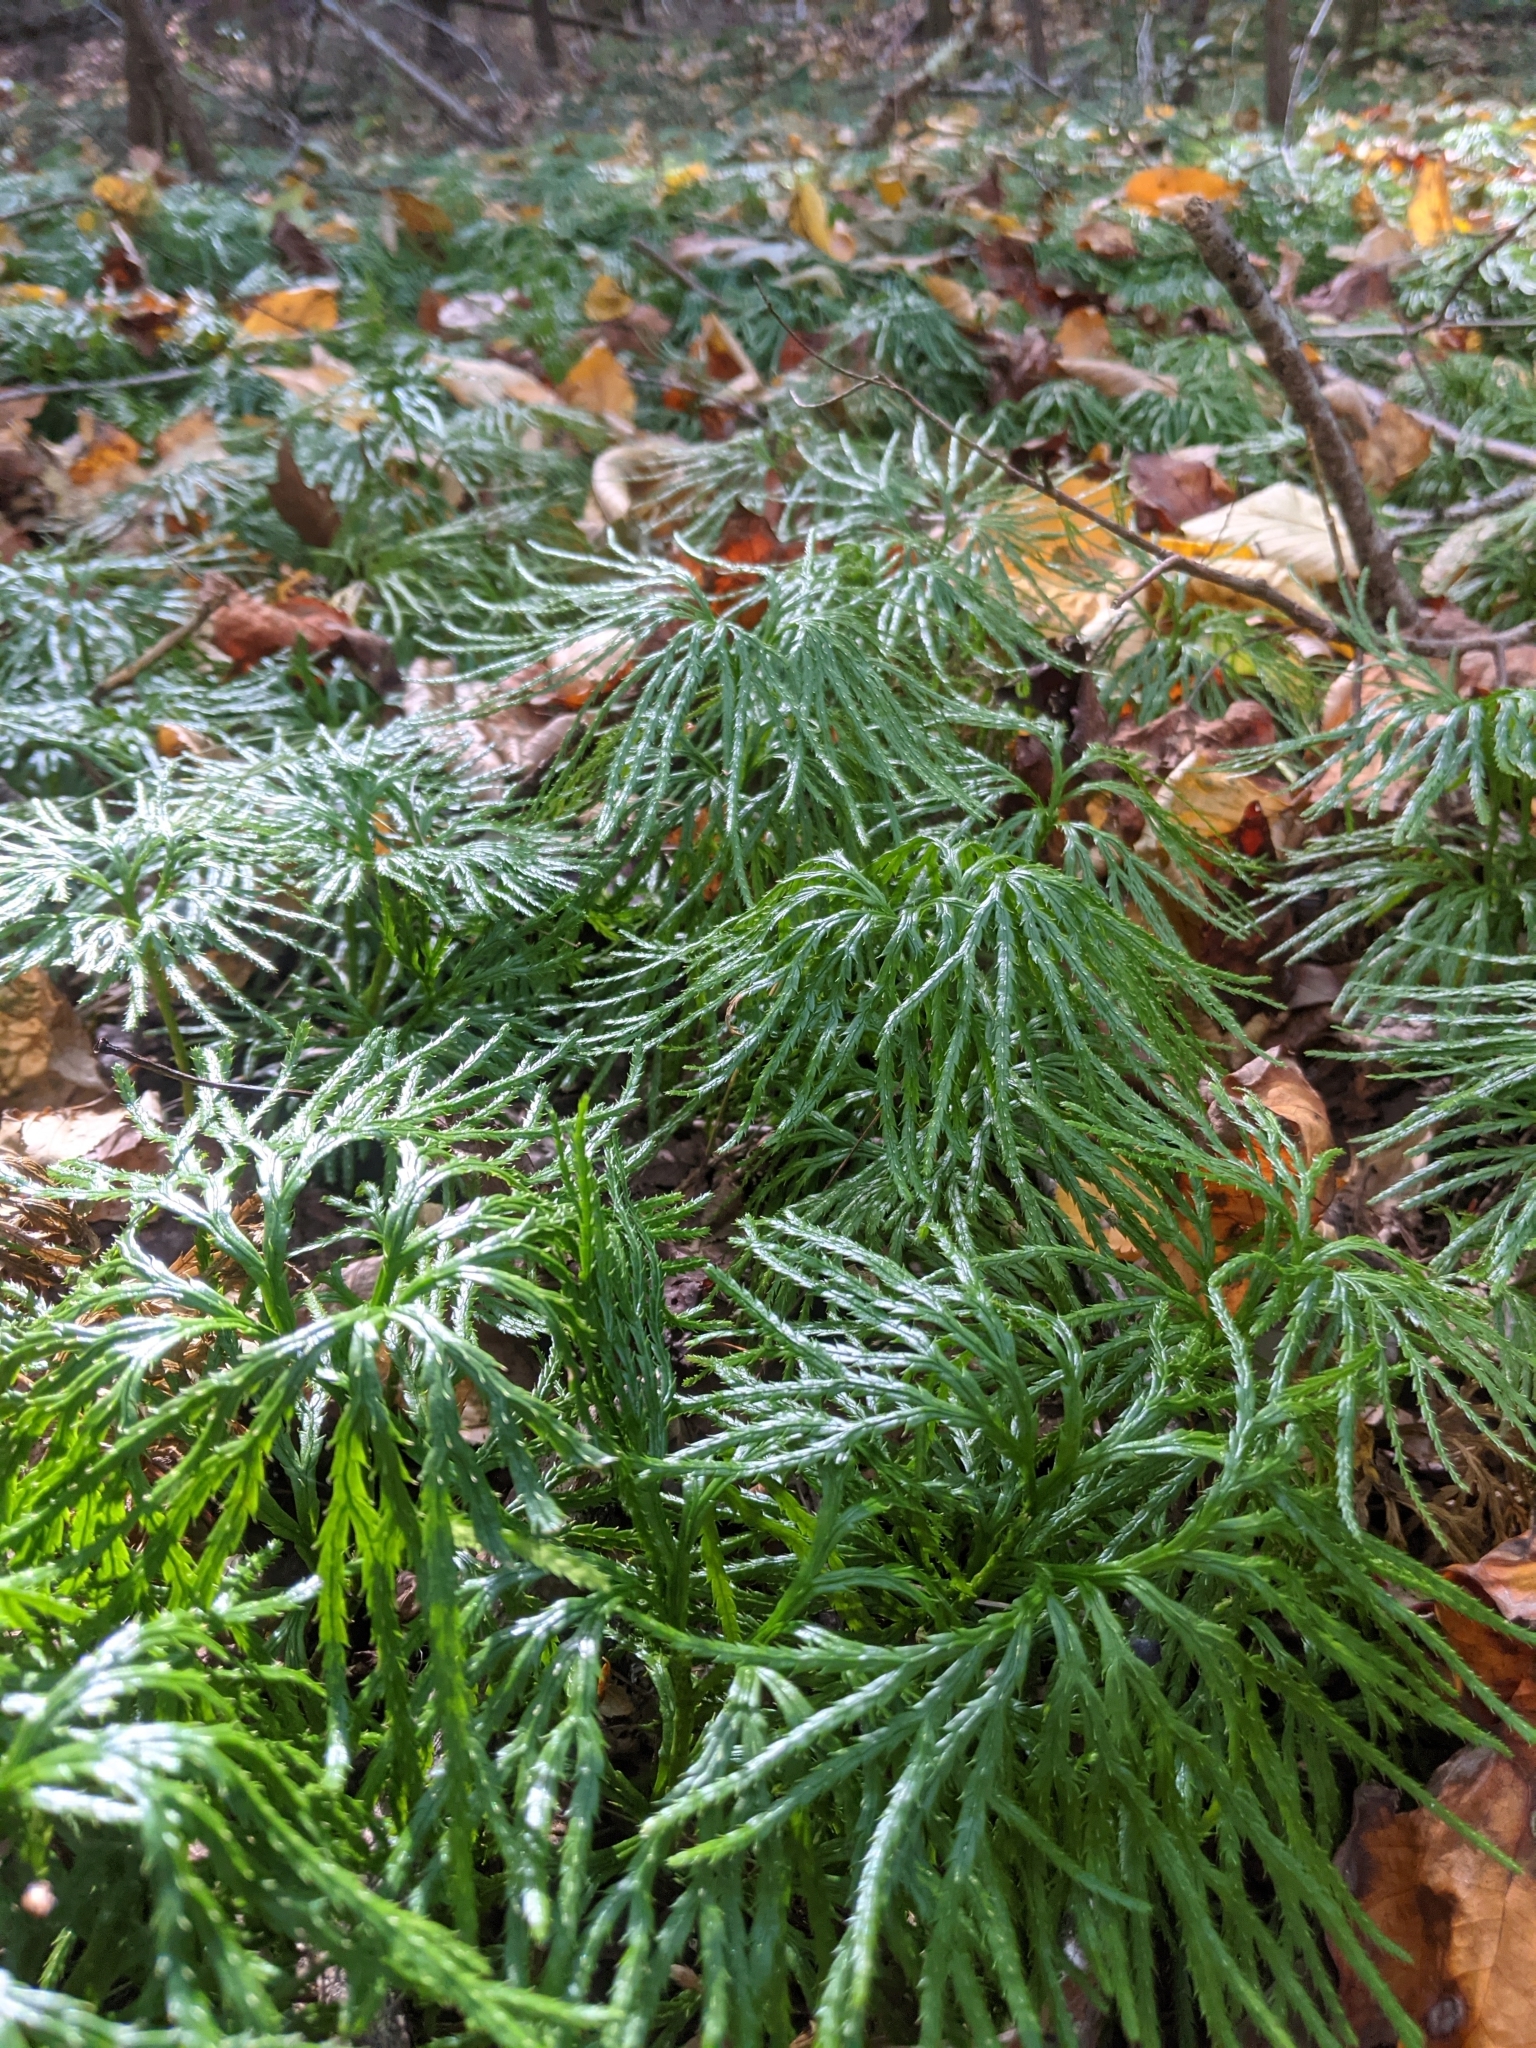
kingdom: Plantae
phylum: Tracheophyta
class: Lycopodiopsida
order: Lycopodiales
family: Lycopodiaceae
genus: Diphasiastrum
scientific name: Diphasiastrum digitatum
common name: Southern running-pine
